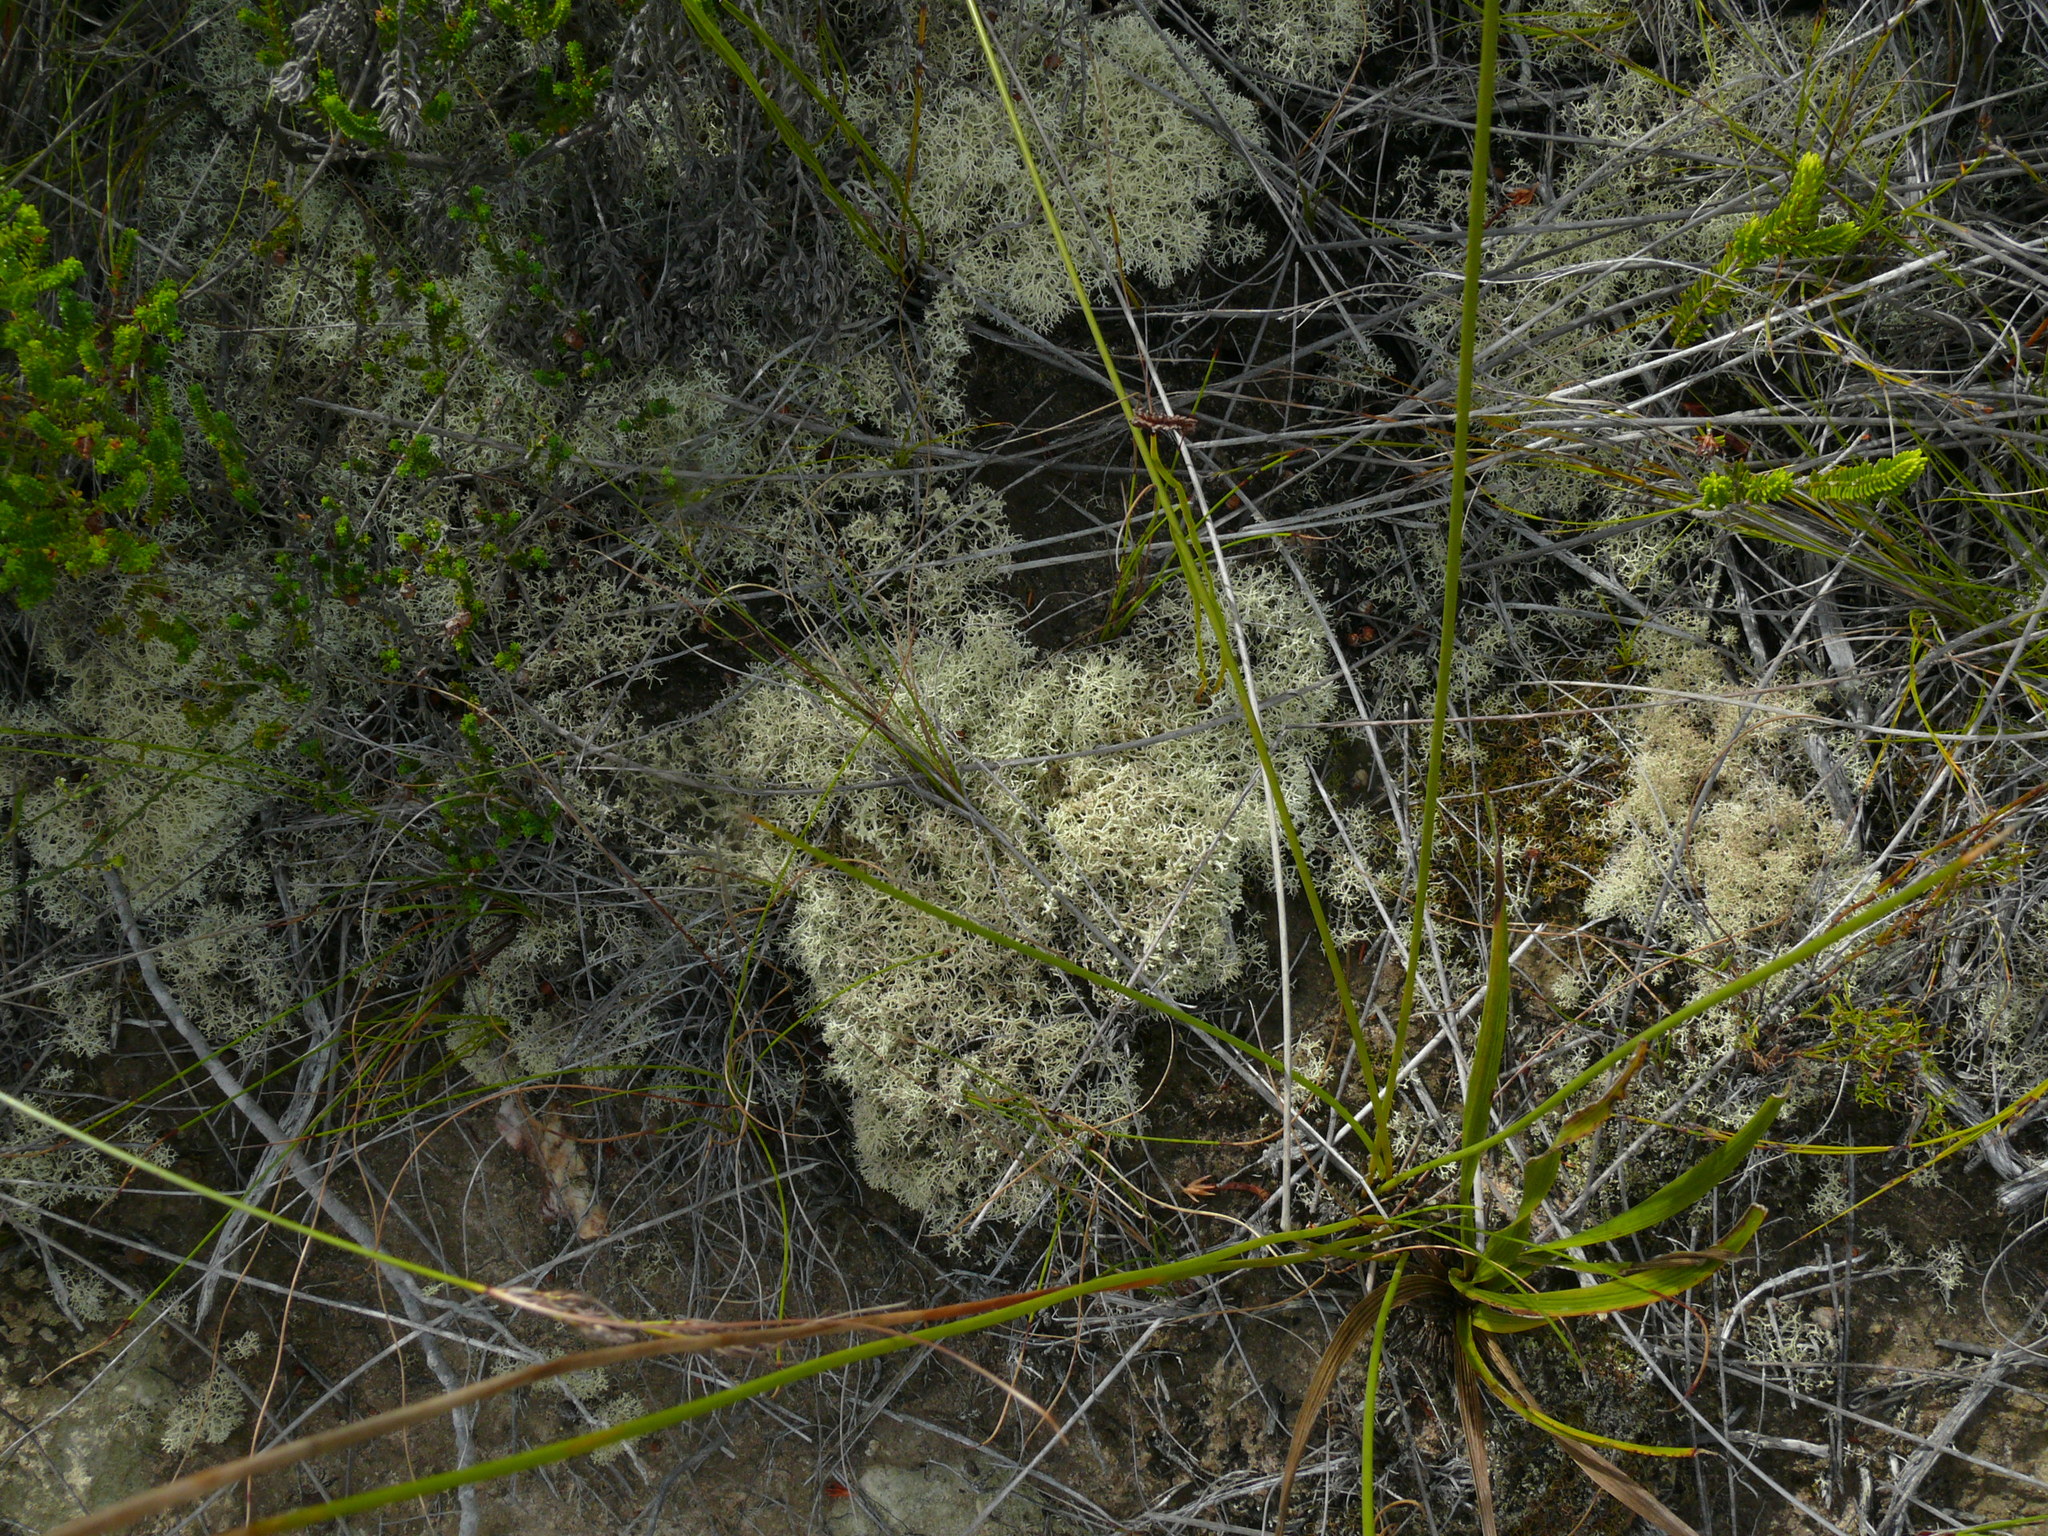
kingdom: Fungi
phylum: Ascomycota
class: Lecanoromycetes
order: Lecanorales
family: Cladoniaceae
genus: Cladonia
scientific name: Cladonia confusa
